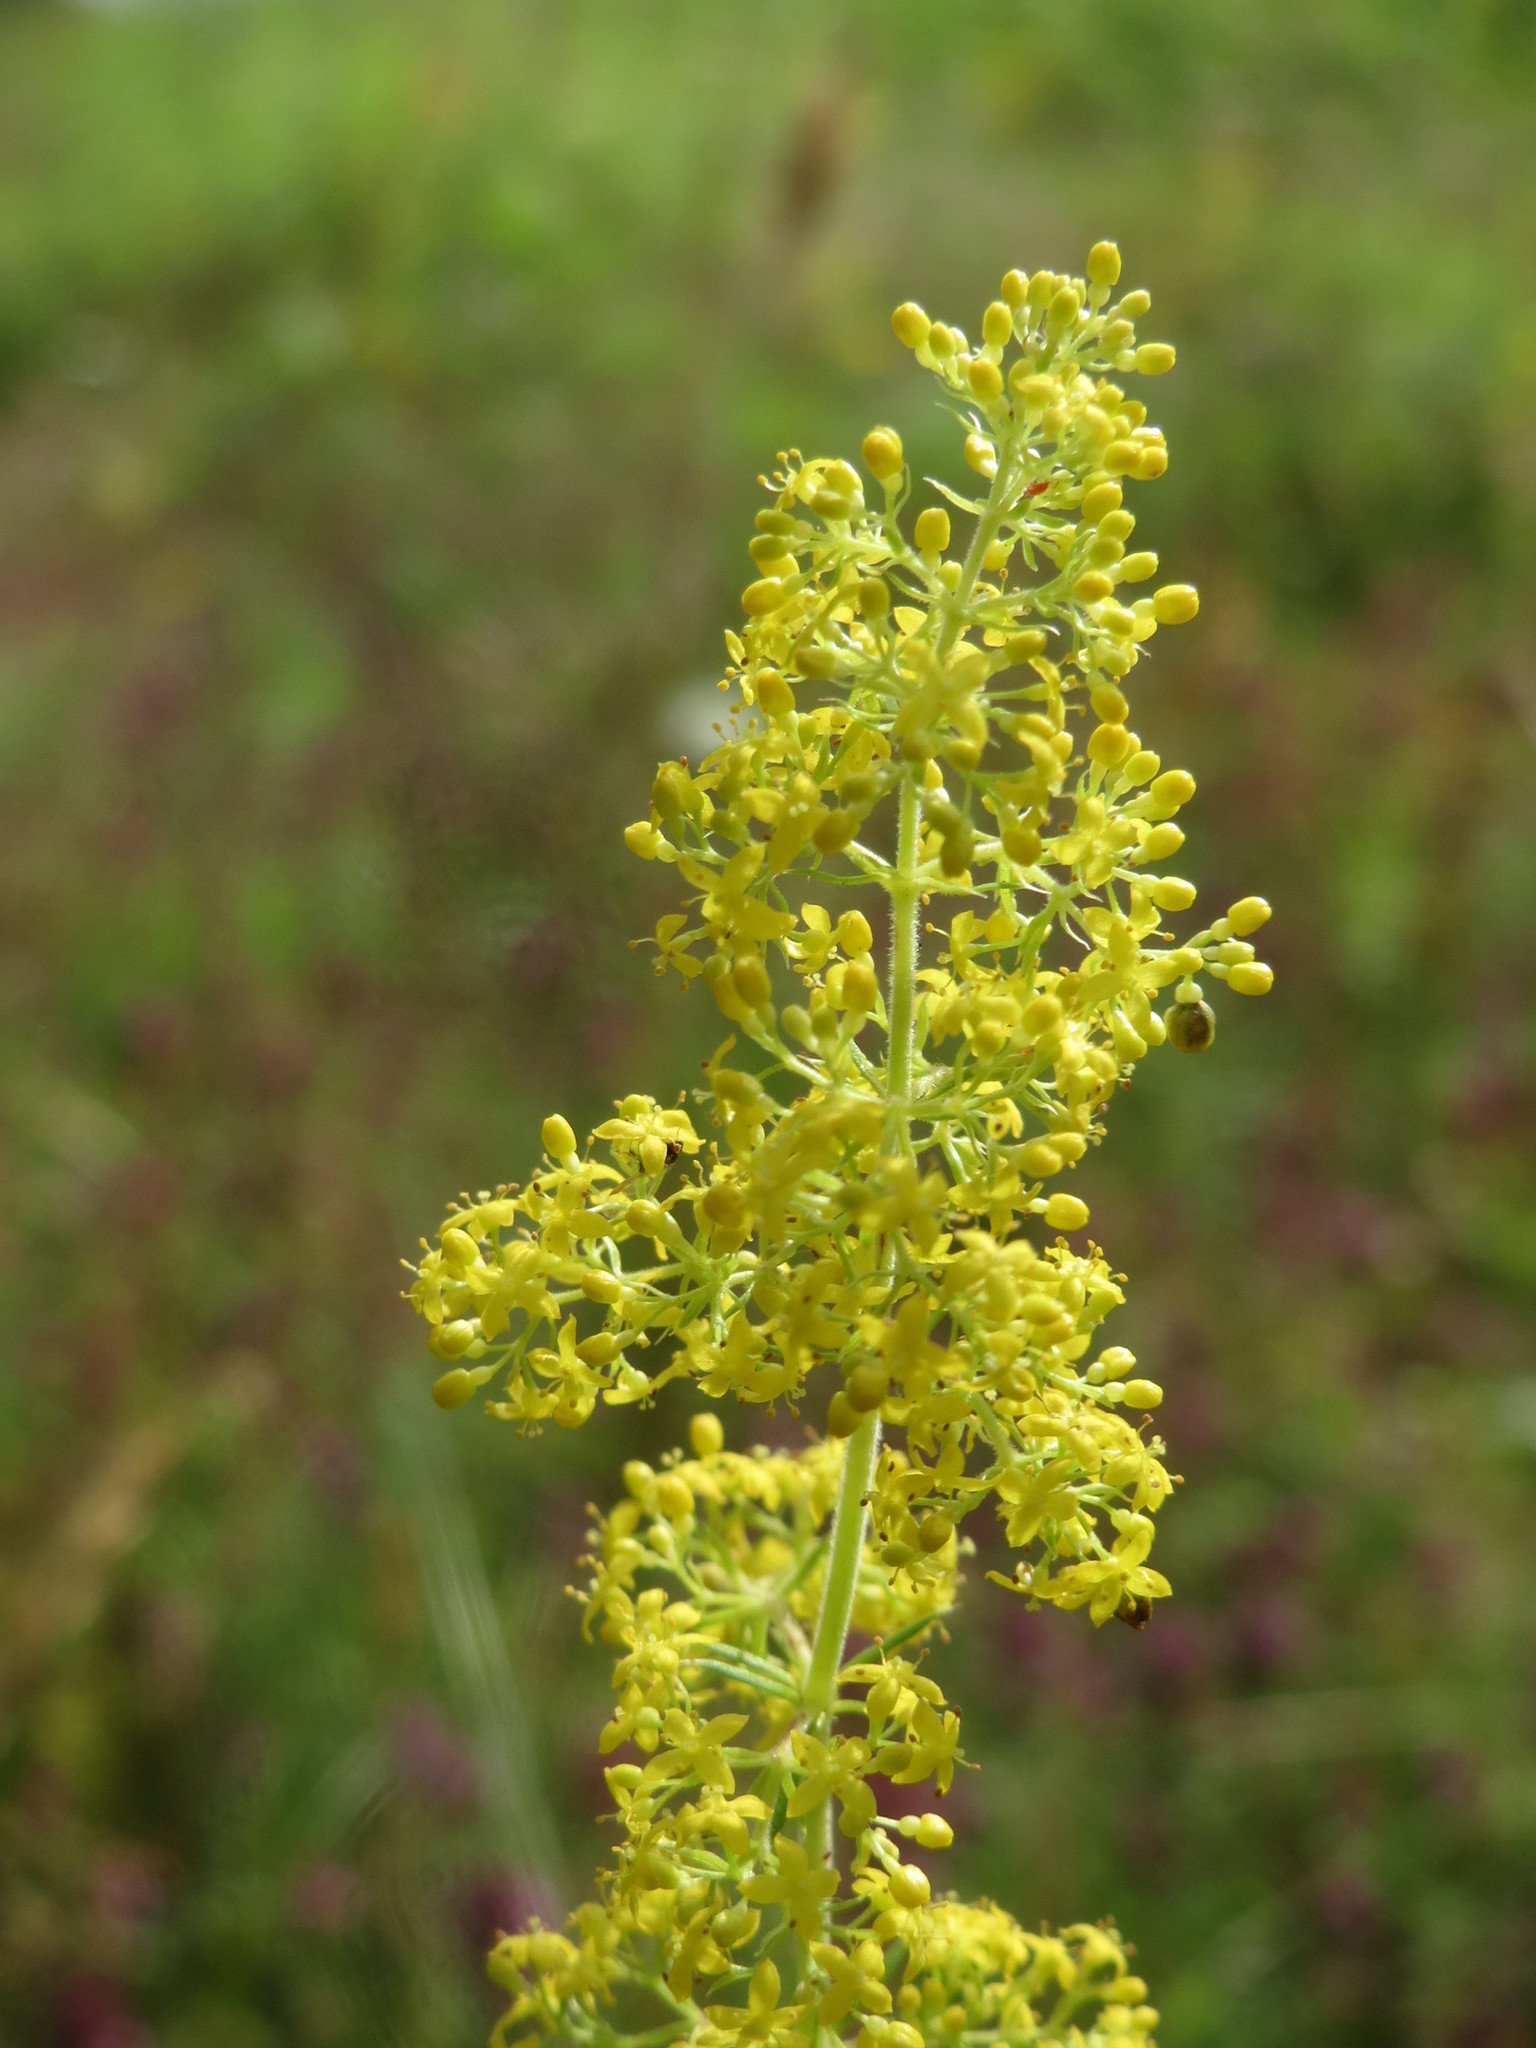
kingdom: Plantae
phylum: Tracheophyta
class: Magnoliopsida
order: Gentianales
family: Rubiaceae
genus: Galium
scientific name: Galium verum
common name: Lady's bedstraw
